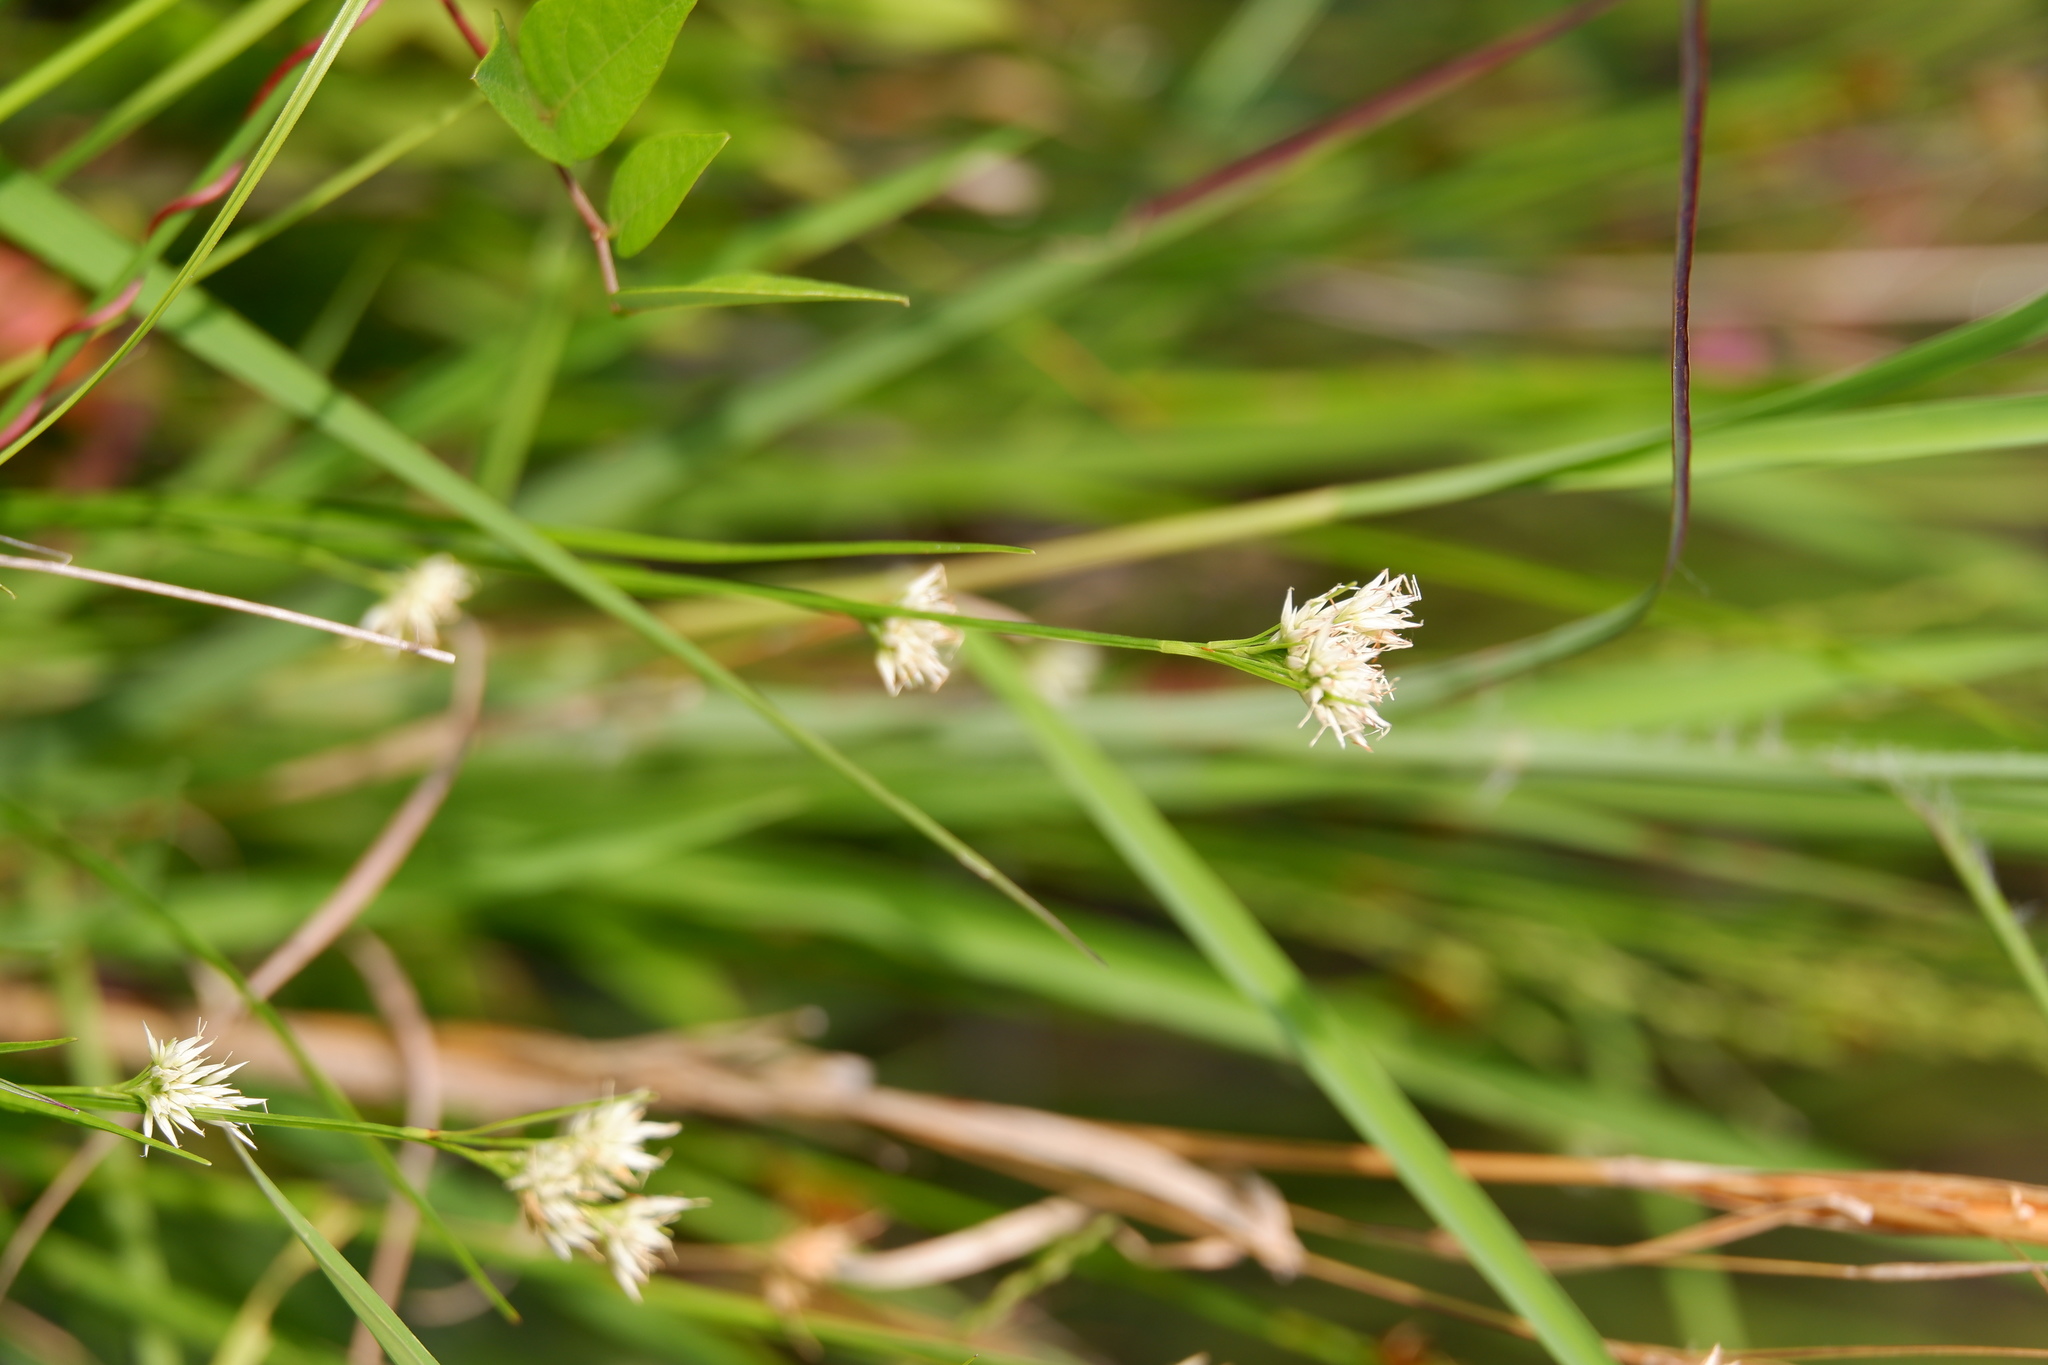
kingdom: Plantae
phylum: Tracheophyta
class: Liliopsida
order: Poales
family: Cyperaceae
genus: Rhynchospora
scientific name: Rhynchospora alba
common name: White beak-sedge
